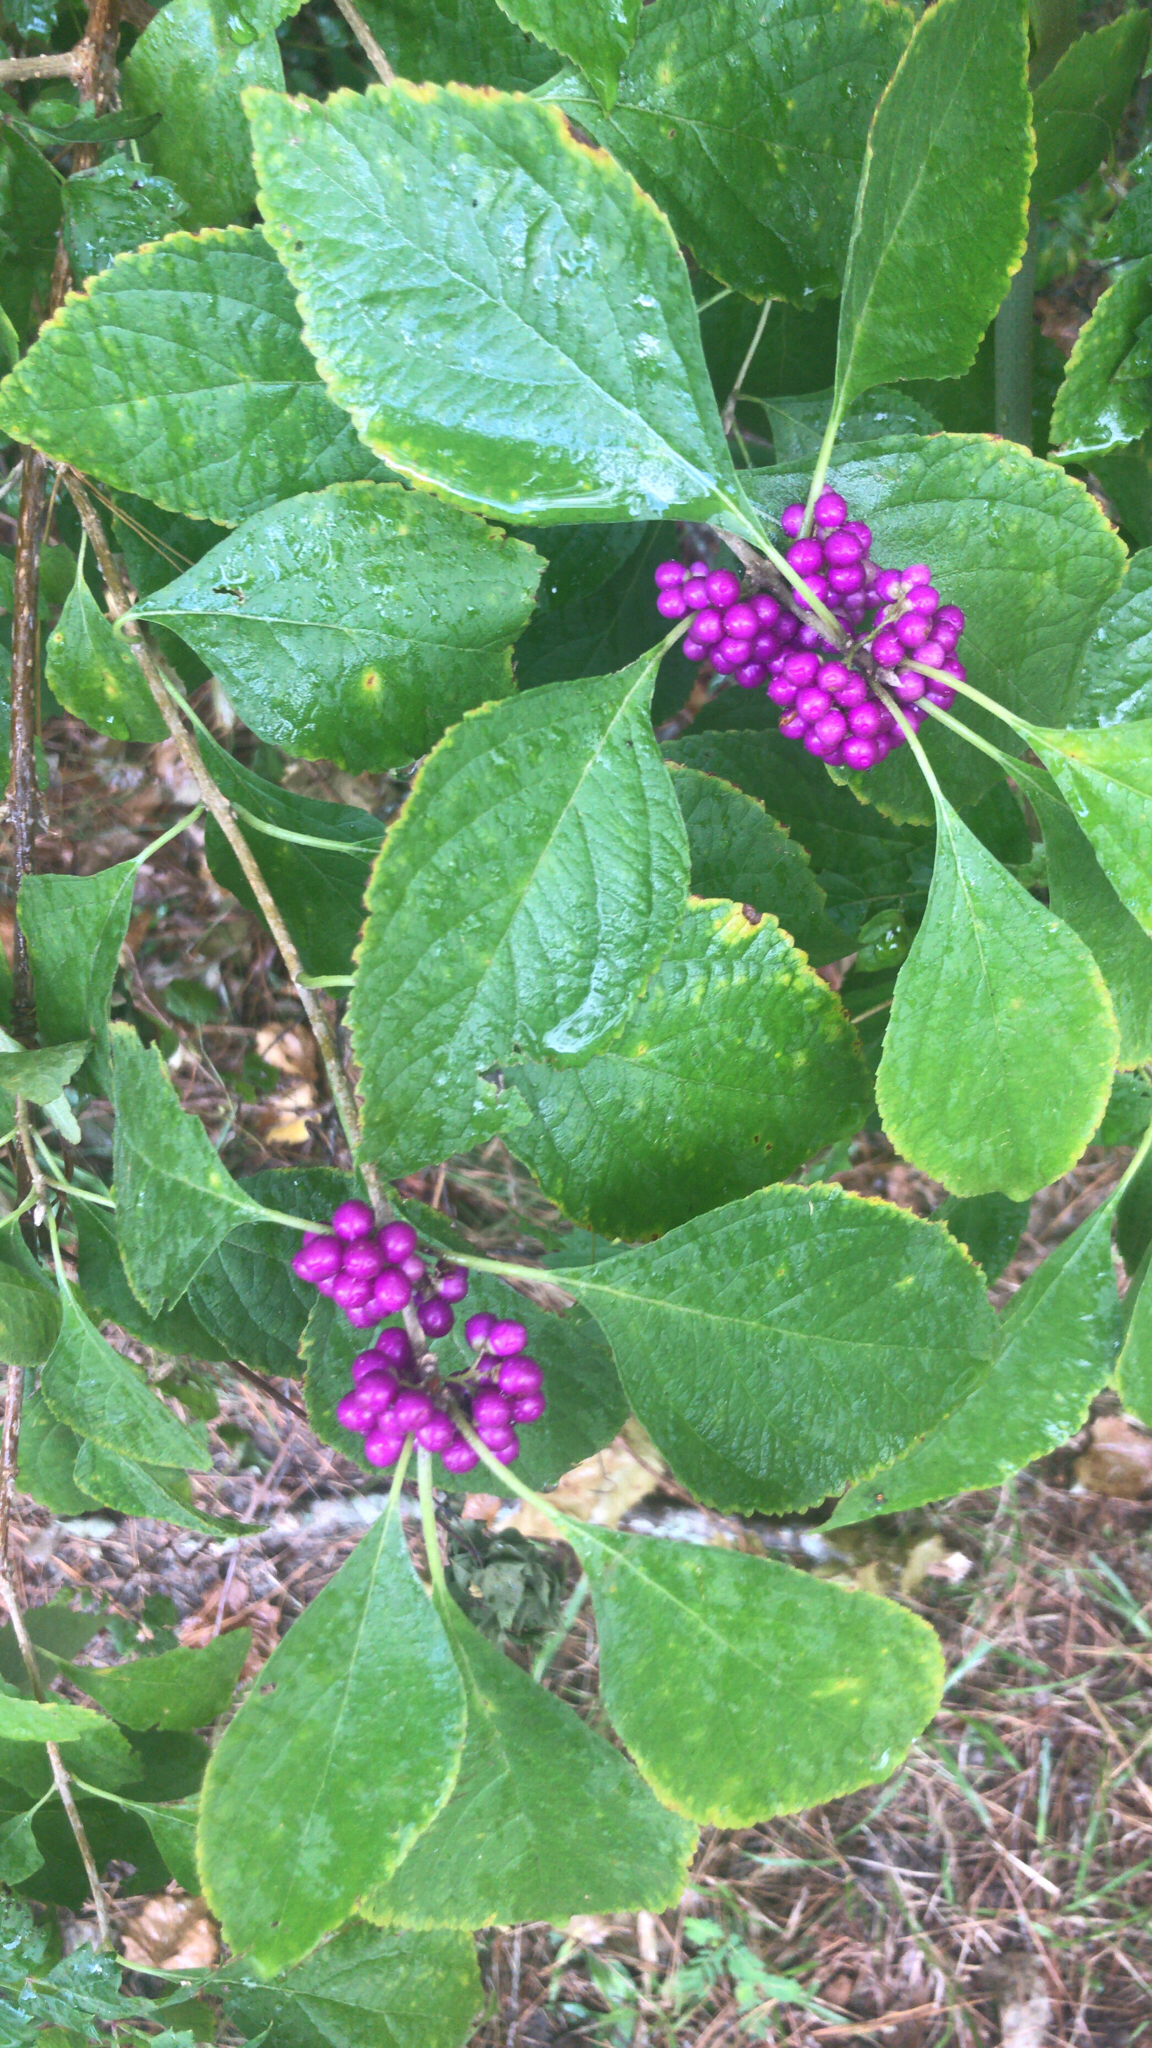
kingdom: Plantae
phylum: Tracheophyta
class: Magnoliopsida
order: Lamiales
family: Lamiaceae
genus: Callicarpa
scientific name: Callicarpa americana
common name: American beautyberry
